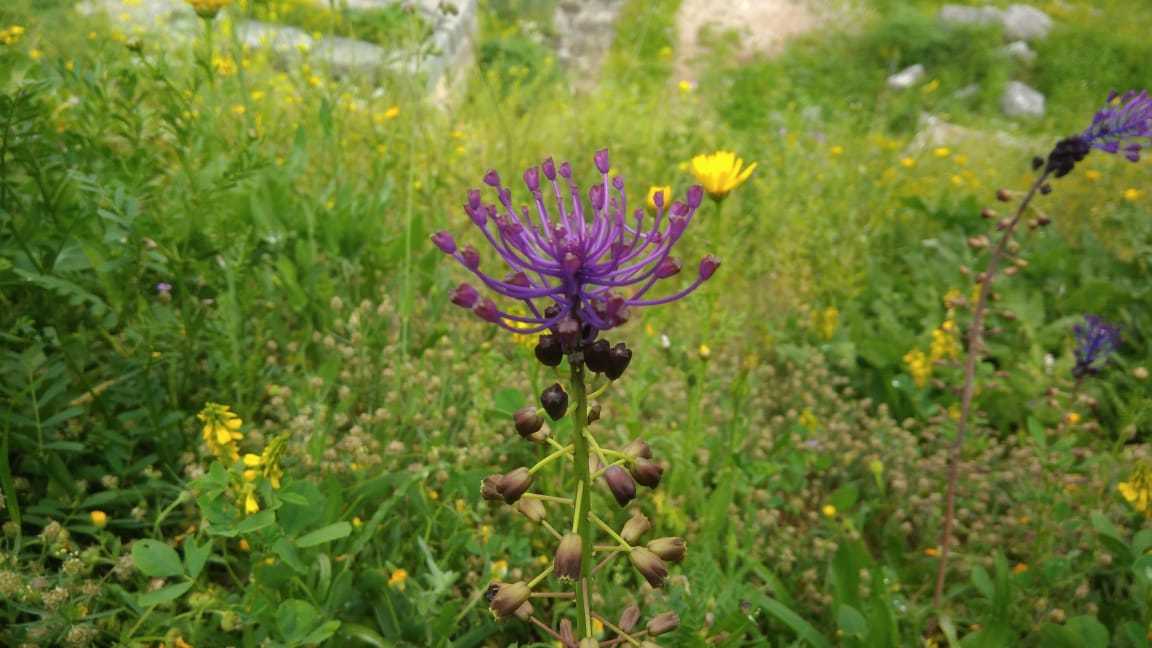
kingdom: Plantae
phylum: Tracheophyta
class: Liliopsida
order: Asparagales
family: Asparagaceae
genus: Muscari
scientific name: Muscari comosum
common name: Tassel hyacinth
